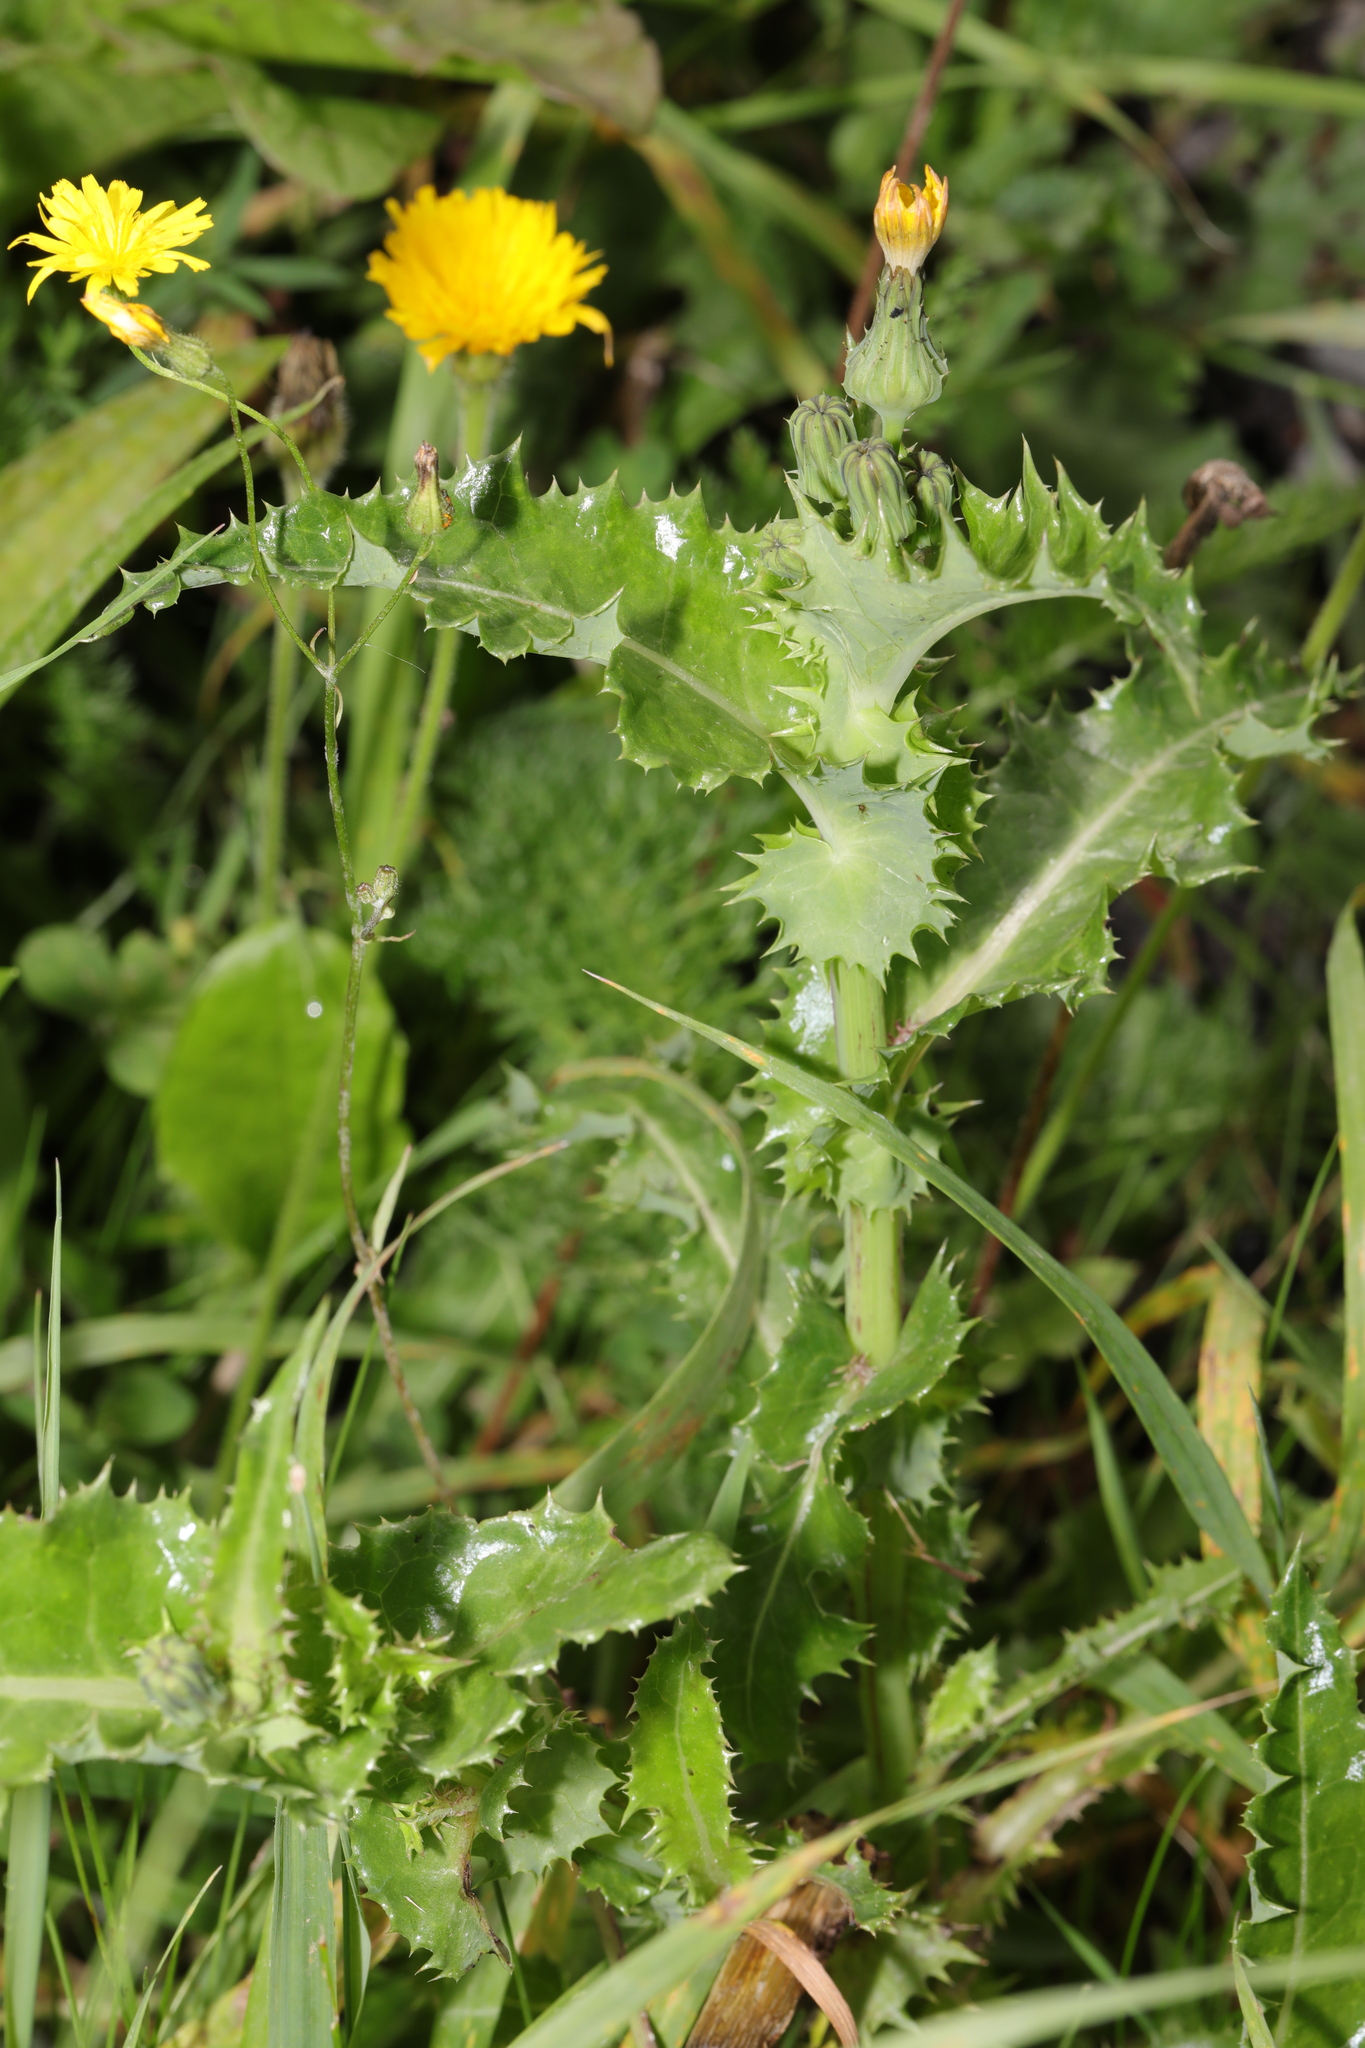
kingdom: Plantae
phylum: Tracheophyta
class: Magnoliopsida
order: Asterales
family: Asteraceae
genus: Sonchus
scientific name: Sonchus asper
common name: Prickly sow-thistle
